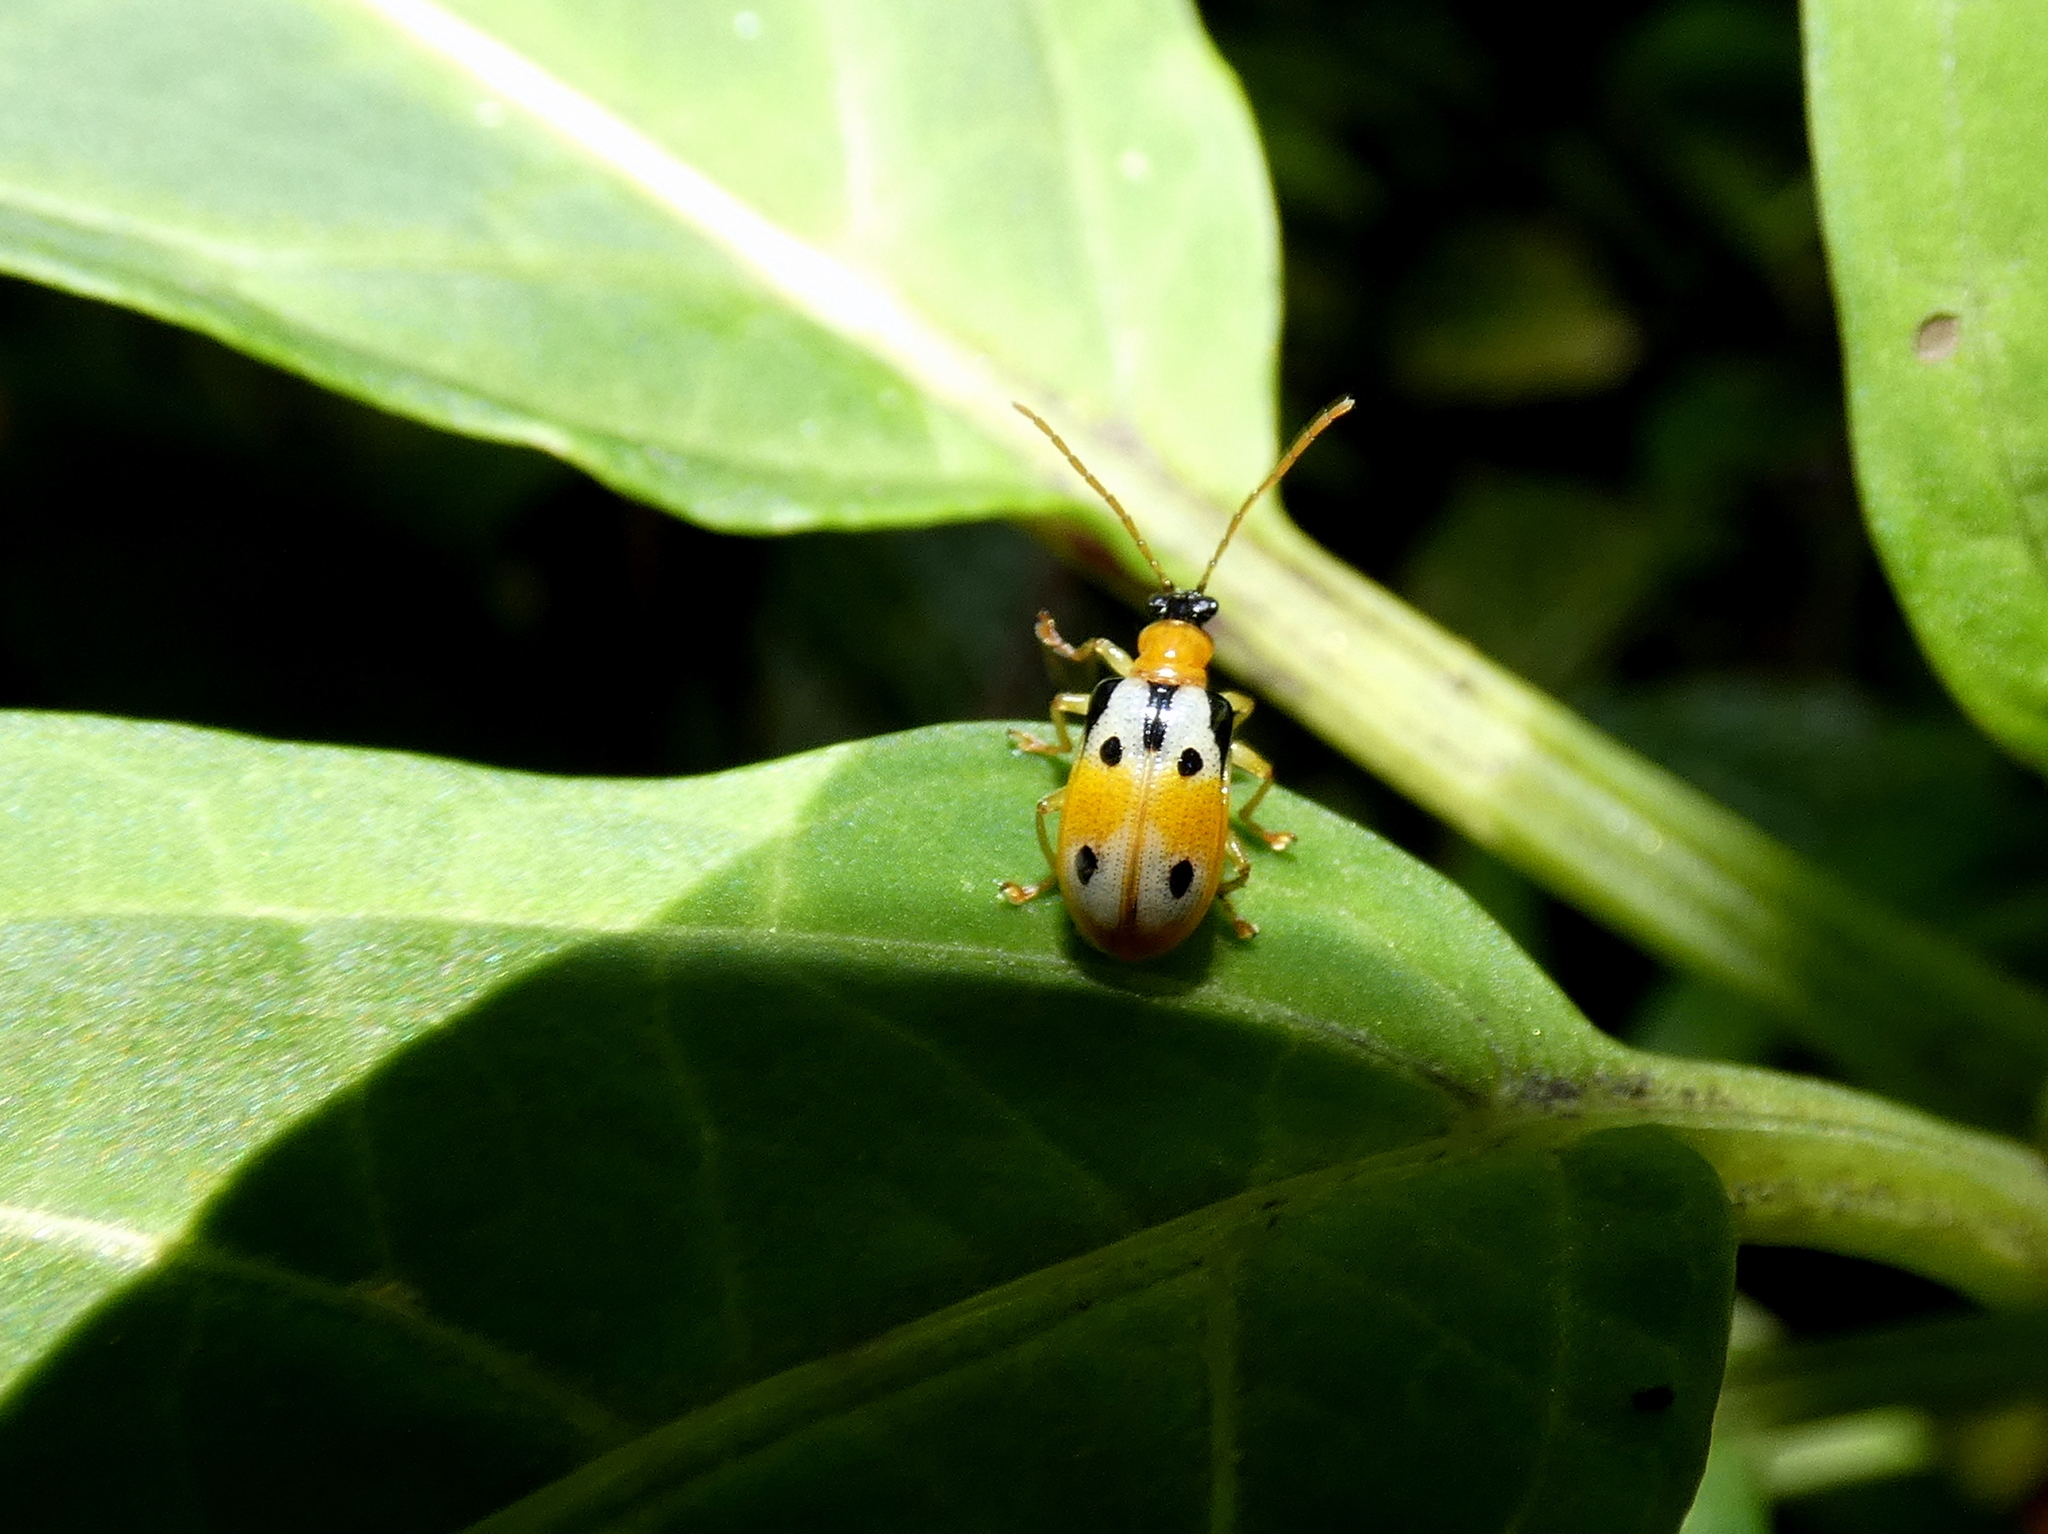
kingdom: Animalia
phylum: Arthropoda
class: Insecta
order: Coleoptera
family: Chrysomelidae
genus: Lema
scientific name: Lema
